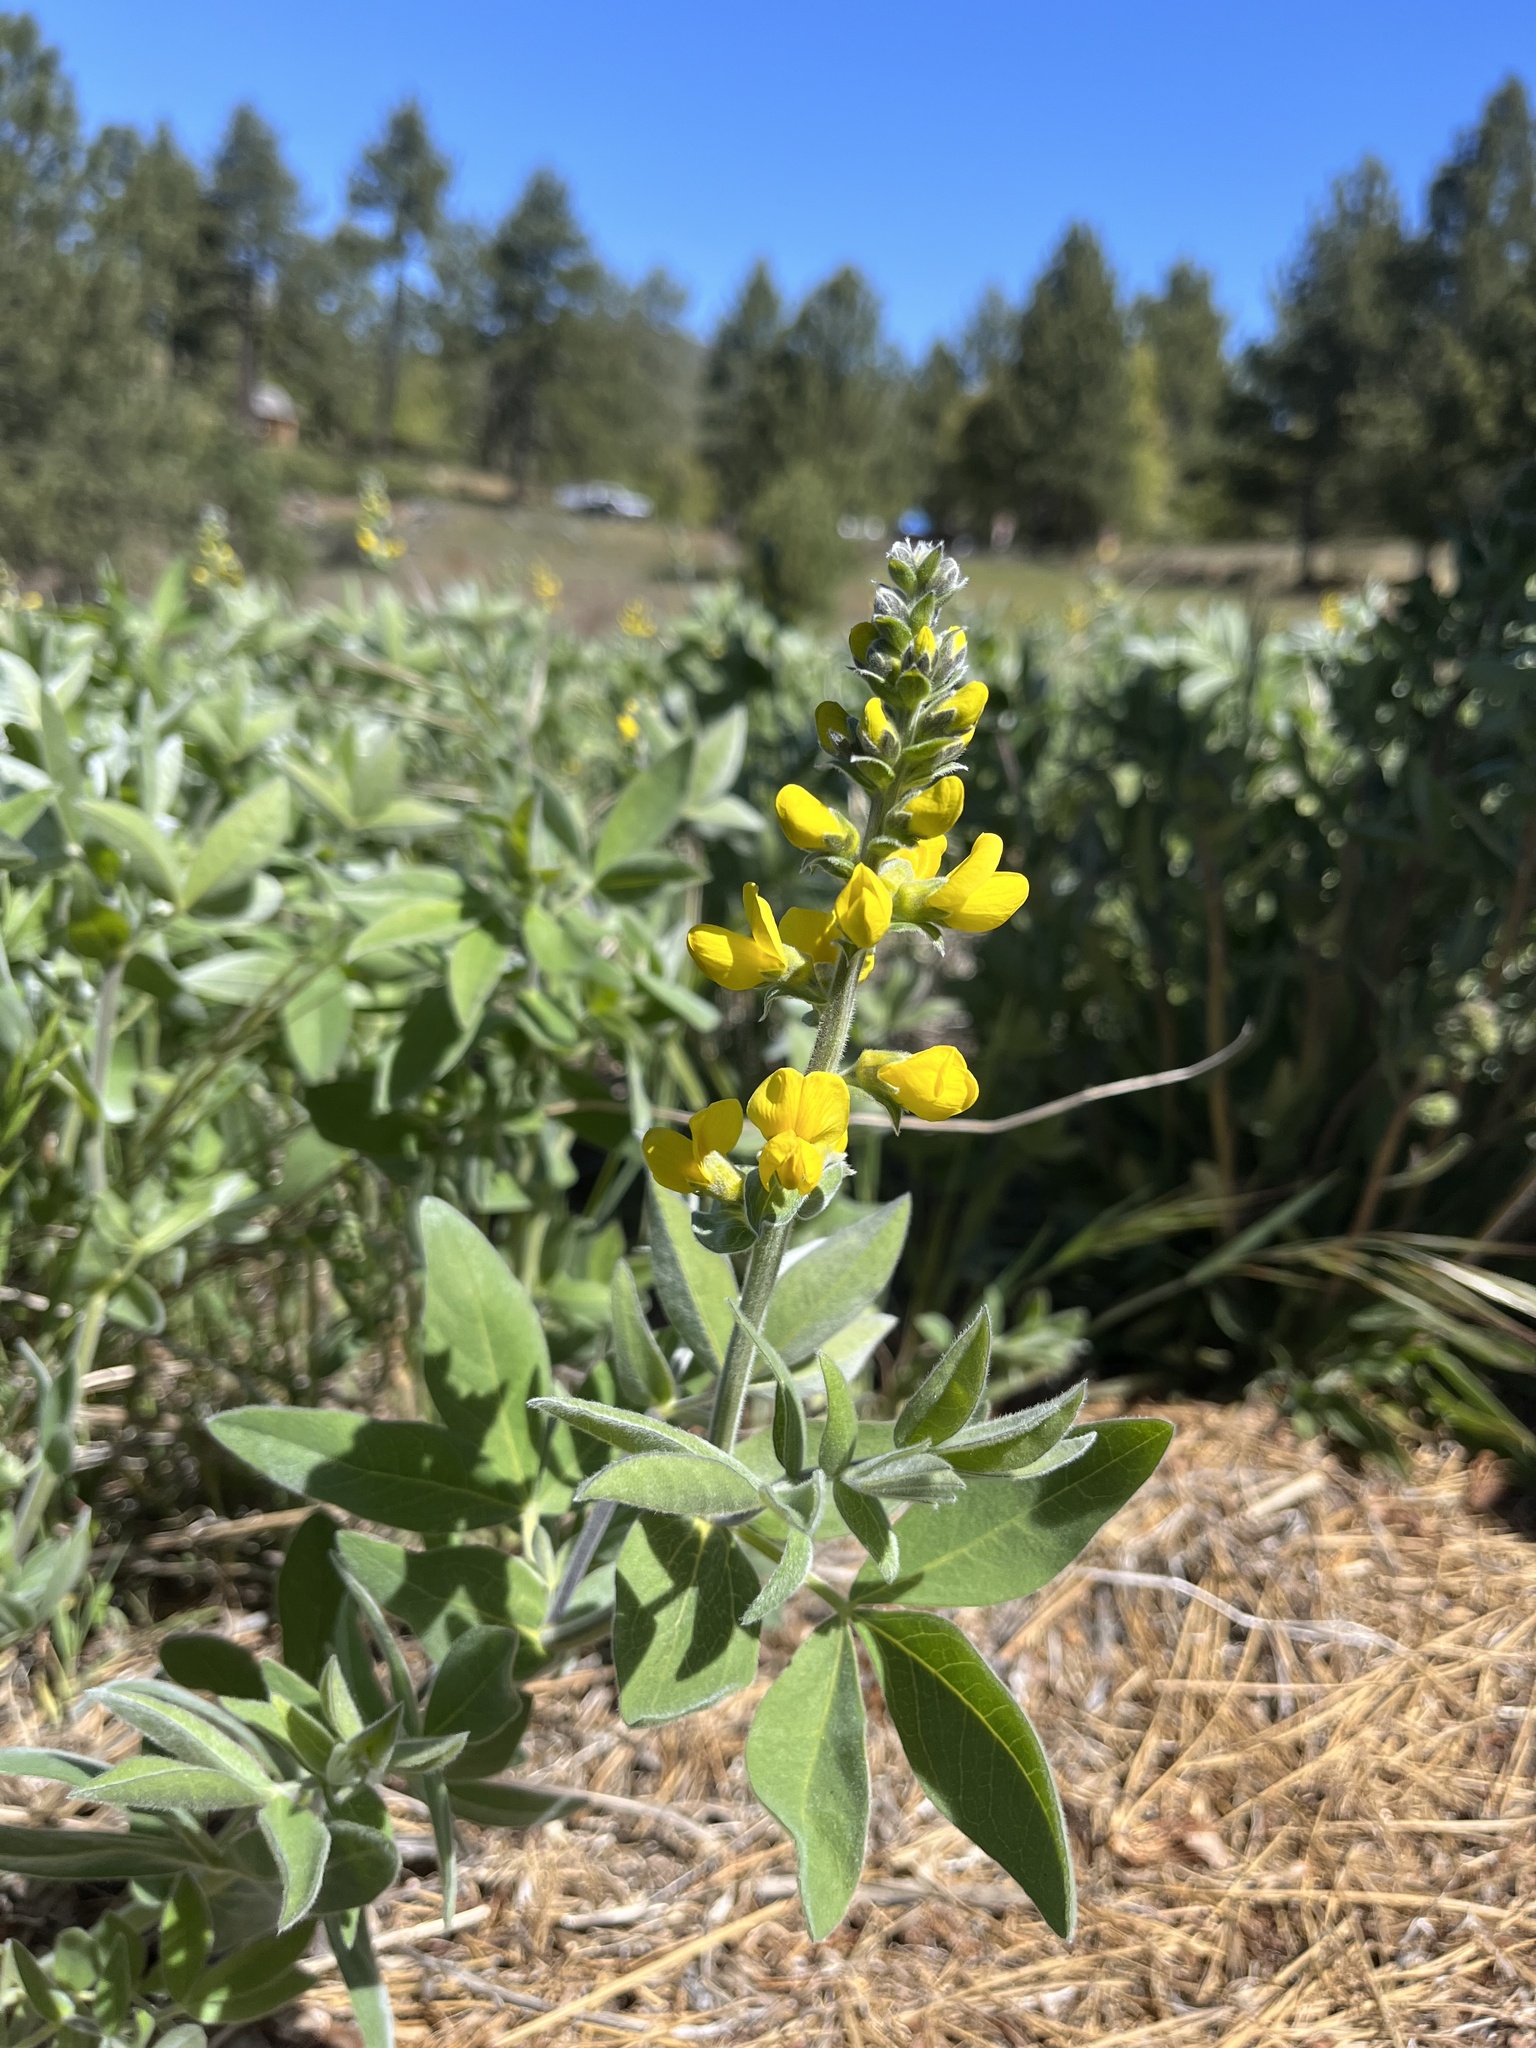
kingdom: Plantae
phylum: Tracheophyta
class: Magnoliopsida
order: Fabales
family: Fabaceae
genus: Thermopsis
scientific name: Thermopsis californica
